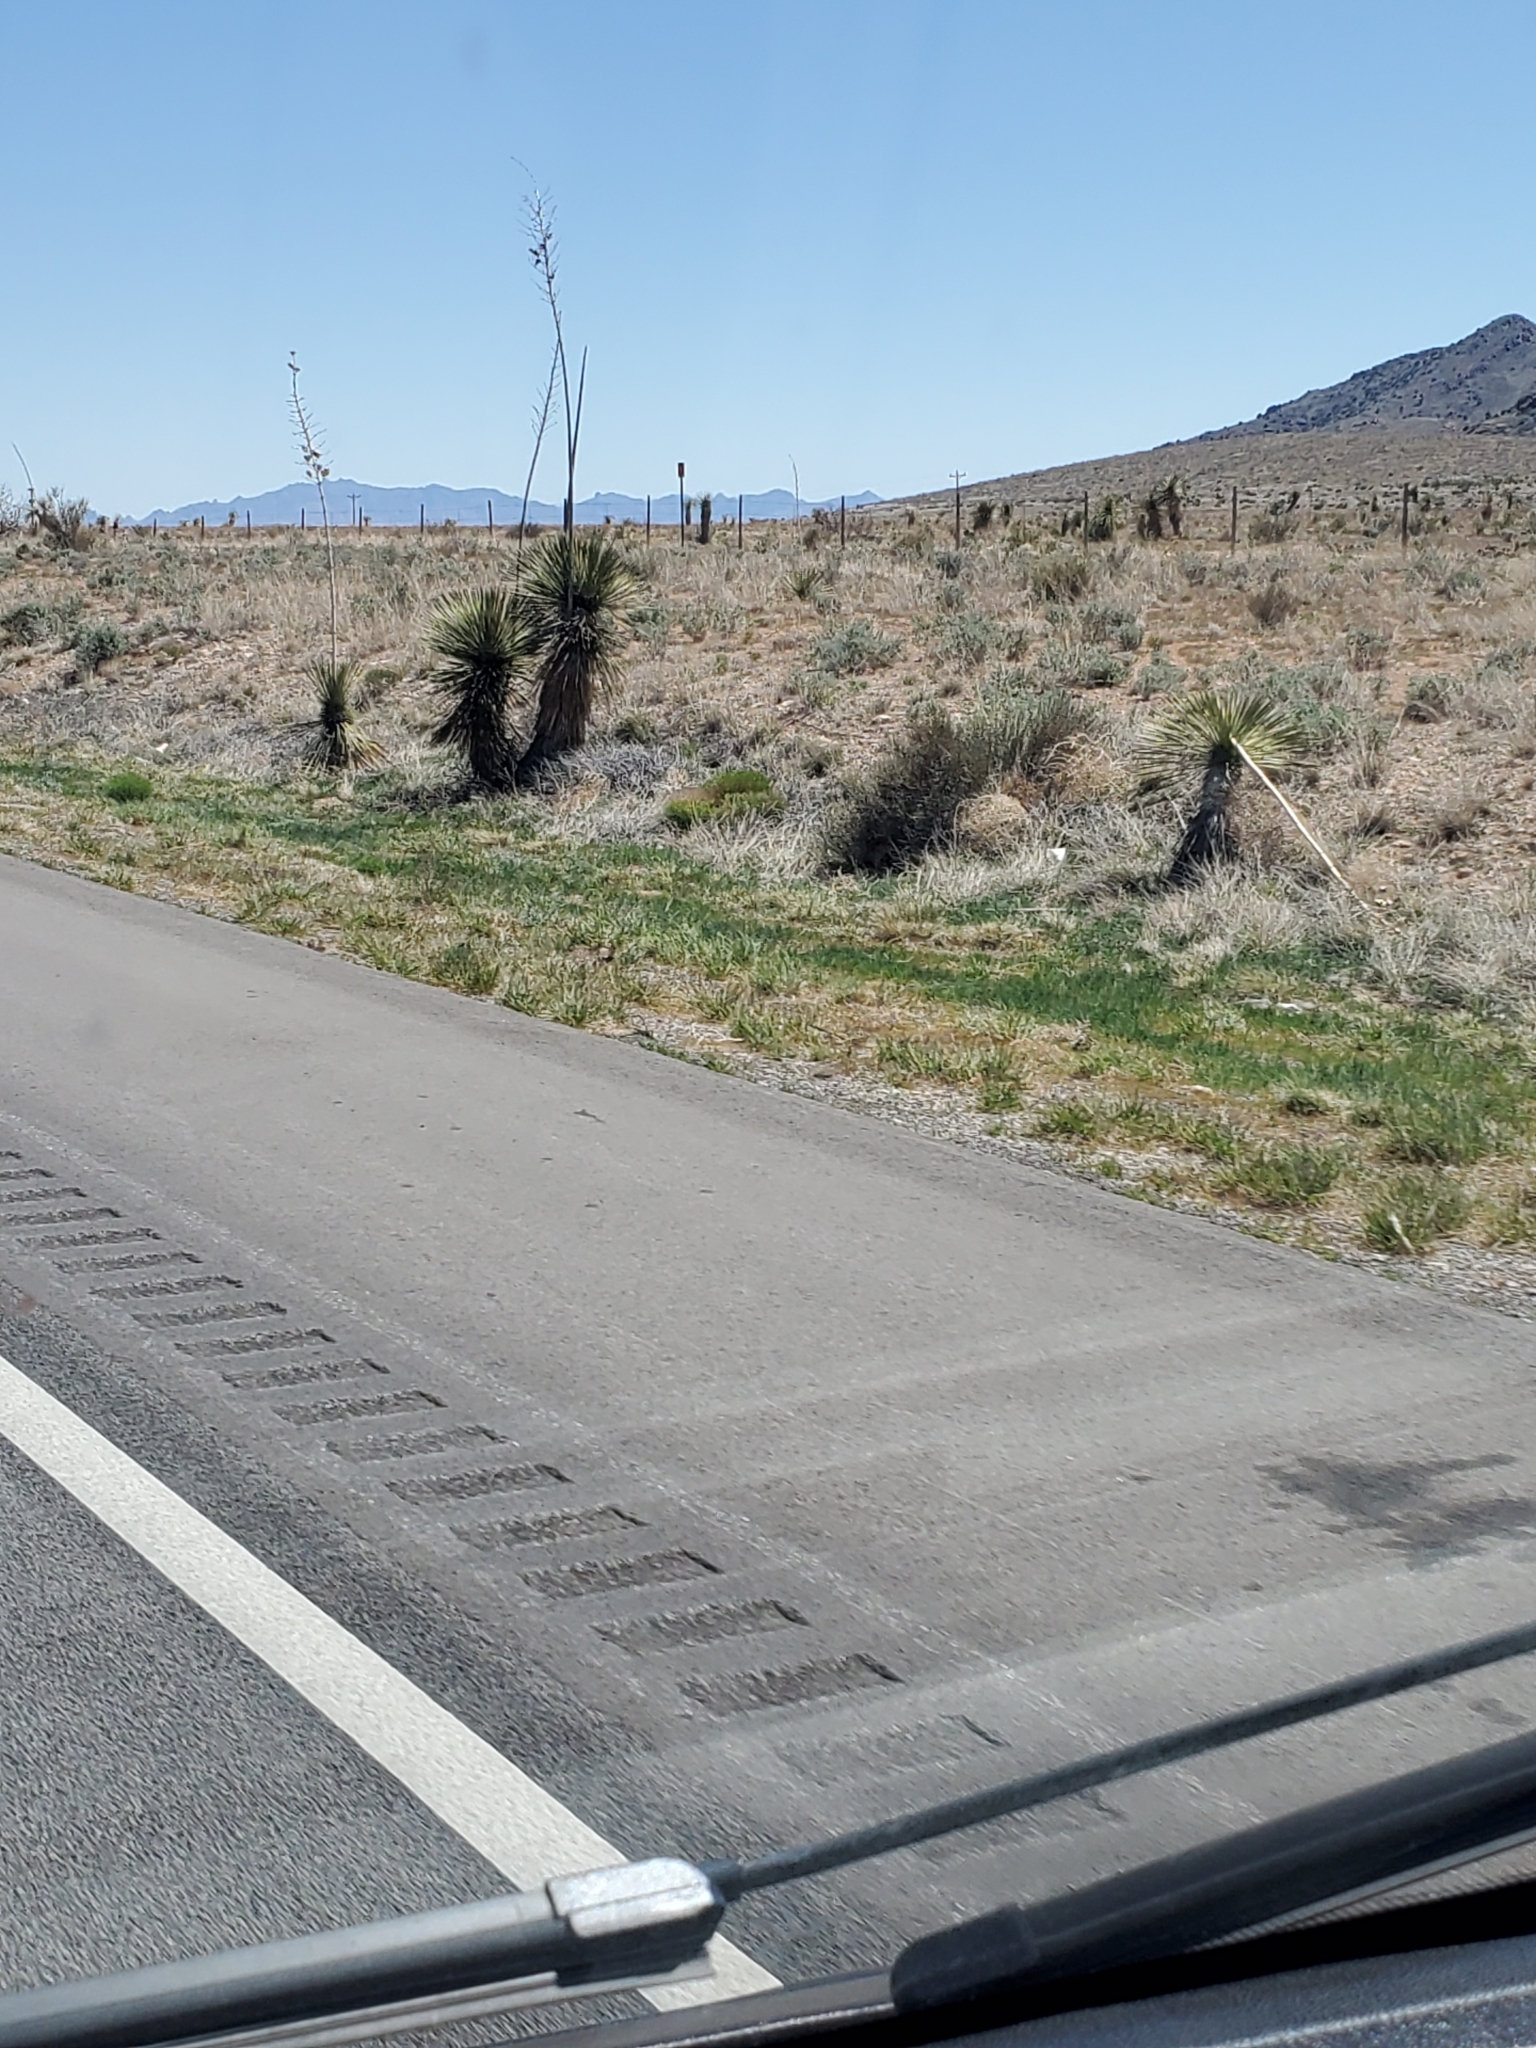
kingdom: Plantae
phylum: Tracheophyta
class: Liliopsida
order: Asparagales
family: Asparagaceae
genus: Yucca
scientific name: Yucca elata
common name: Palmella
